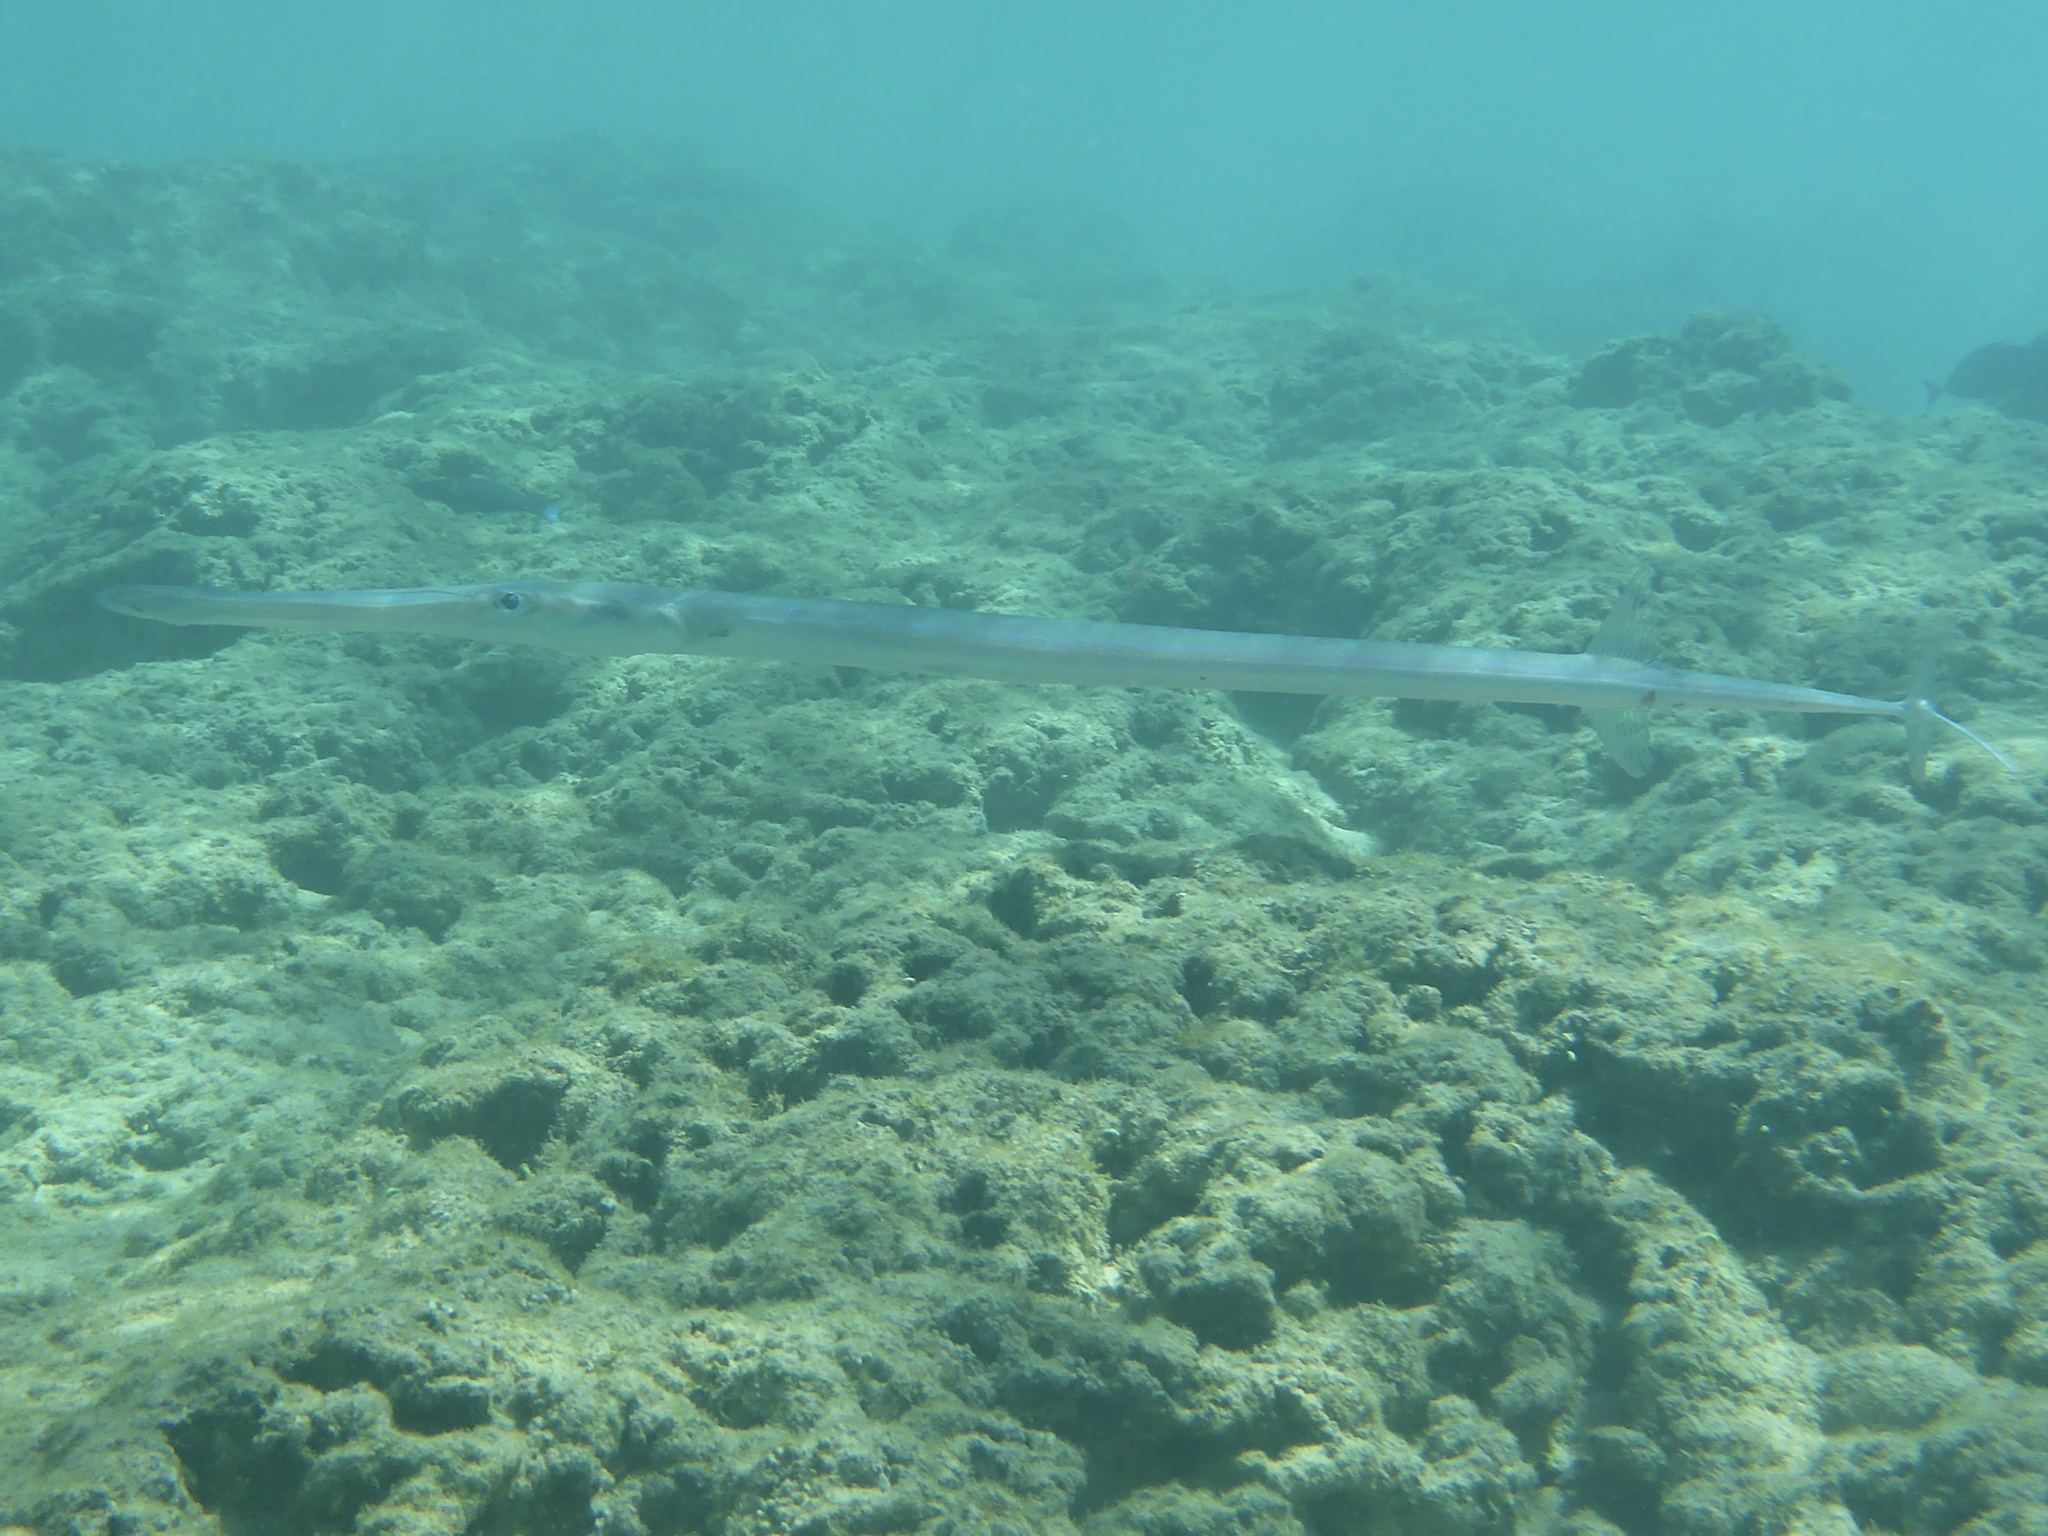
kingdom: Animalia
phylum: Chordata
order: Syngnathiformes
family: Fistulariidae
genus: Fistularia
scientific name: Fistularia commersonii
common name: Bluespotted cornetfish
